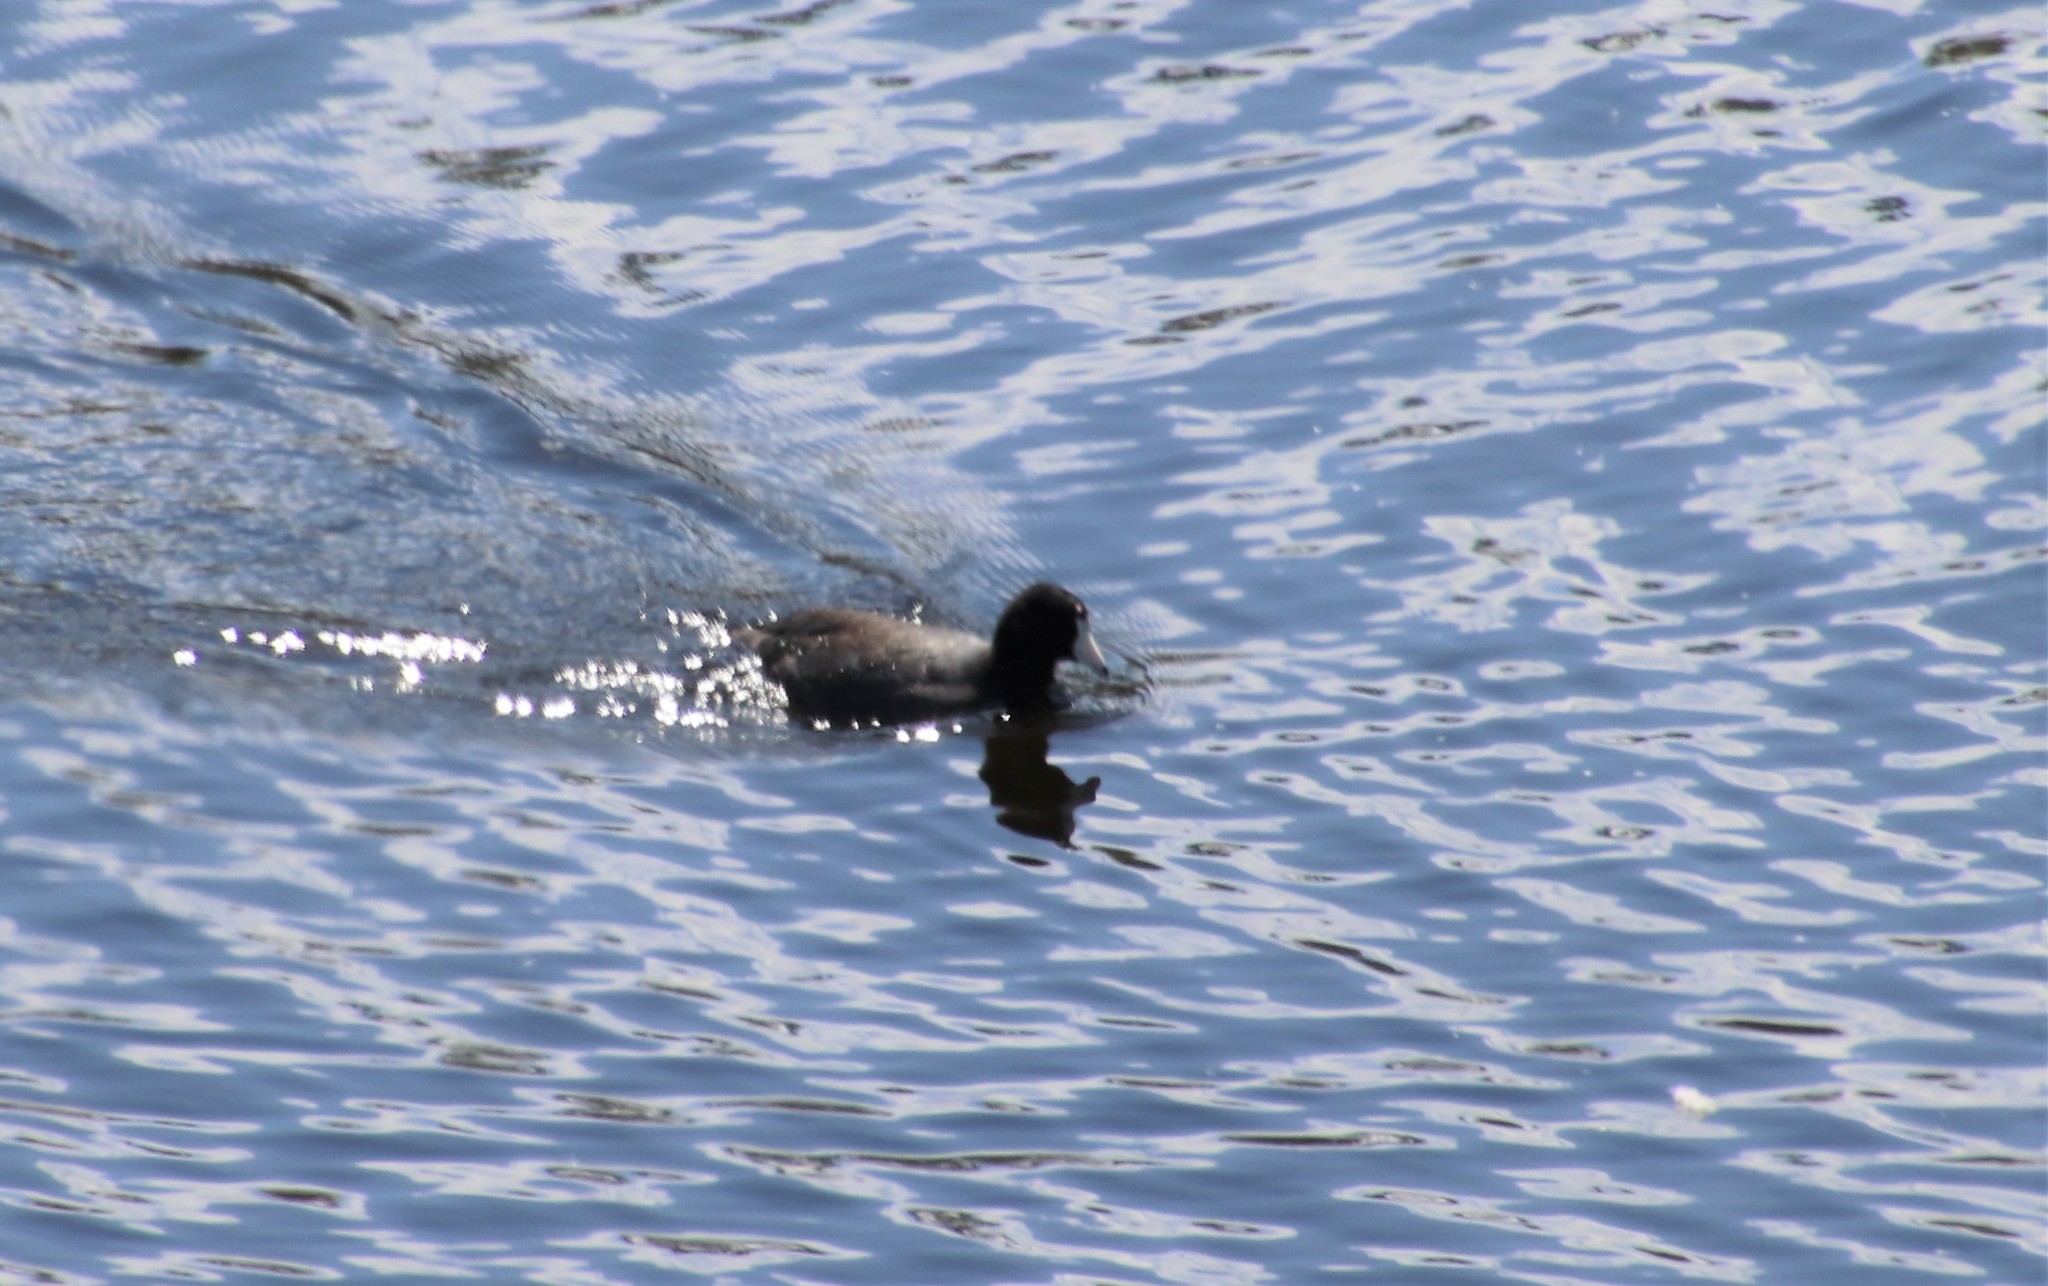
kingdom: Animalia
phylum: Chordata
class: Aves
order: Gruiformes
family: Rallidae
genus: Fulica
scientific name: Fulica americana
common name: American coot
